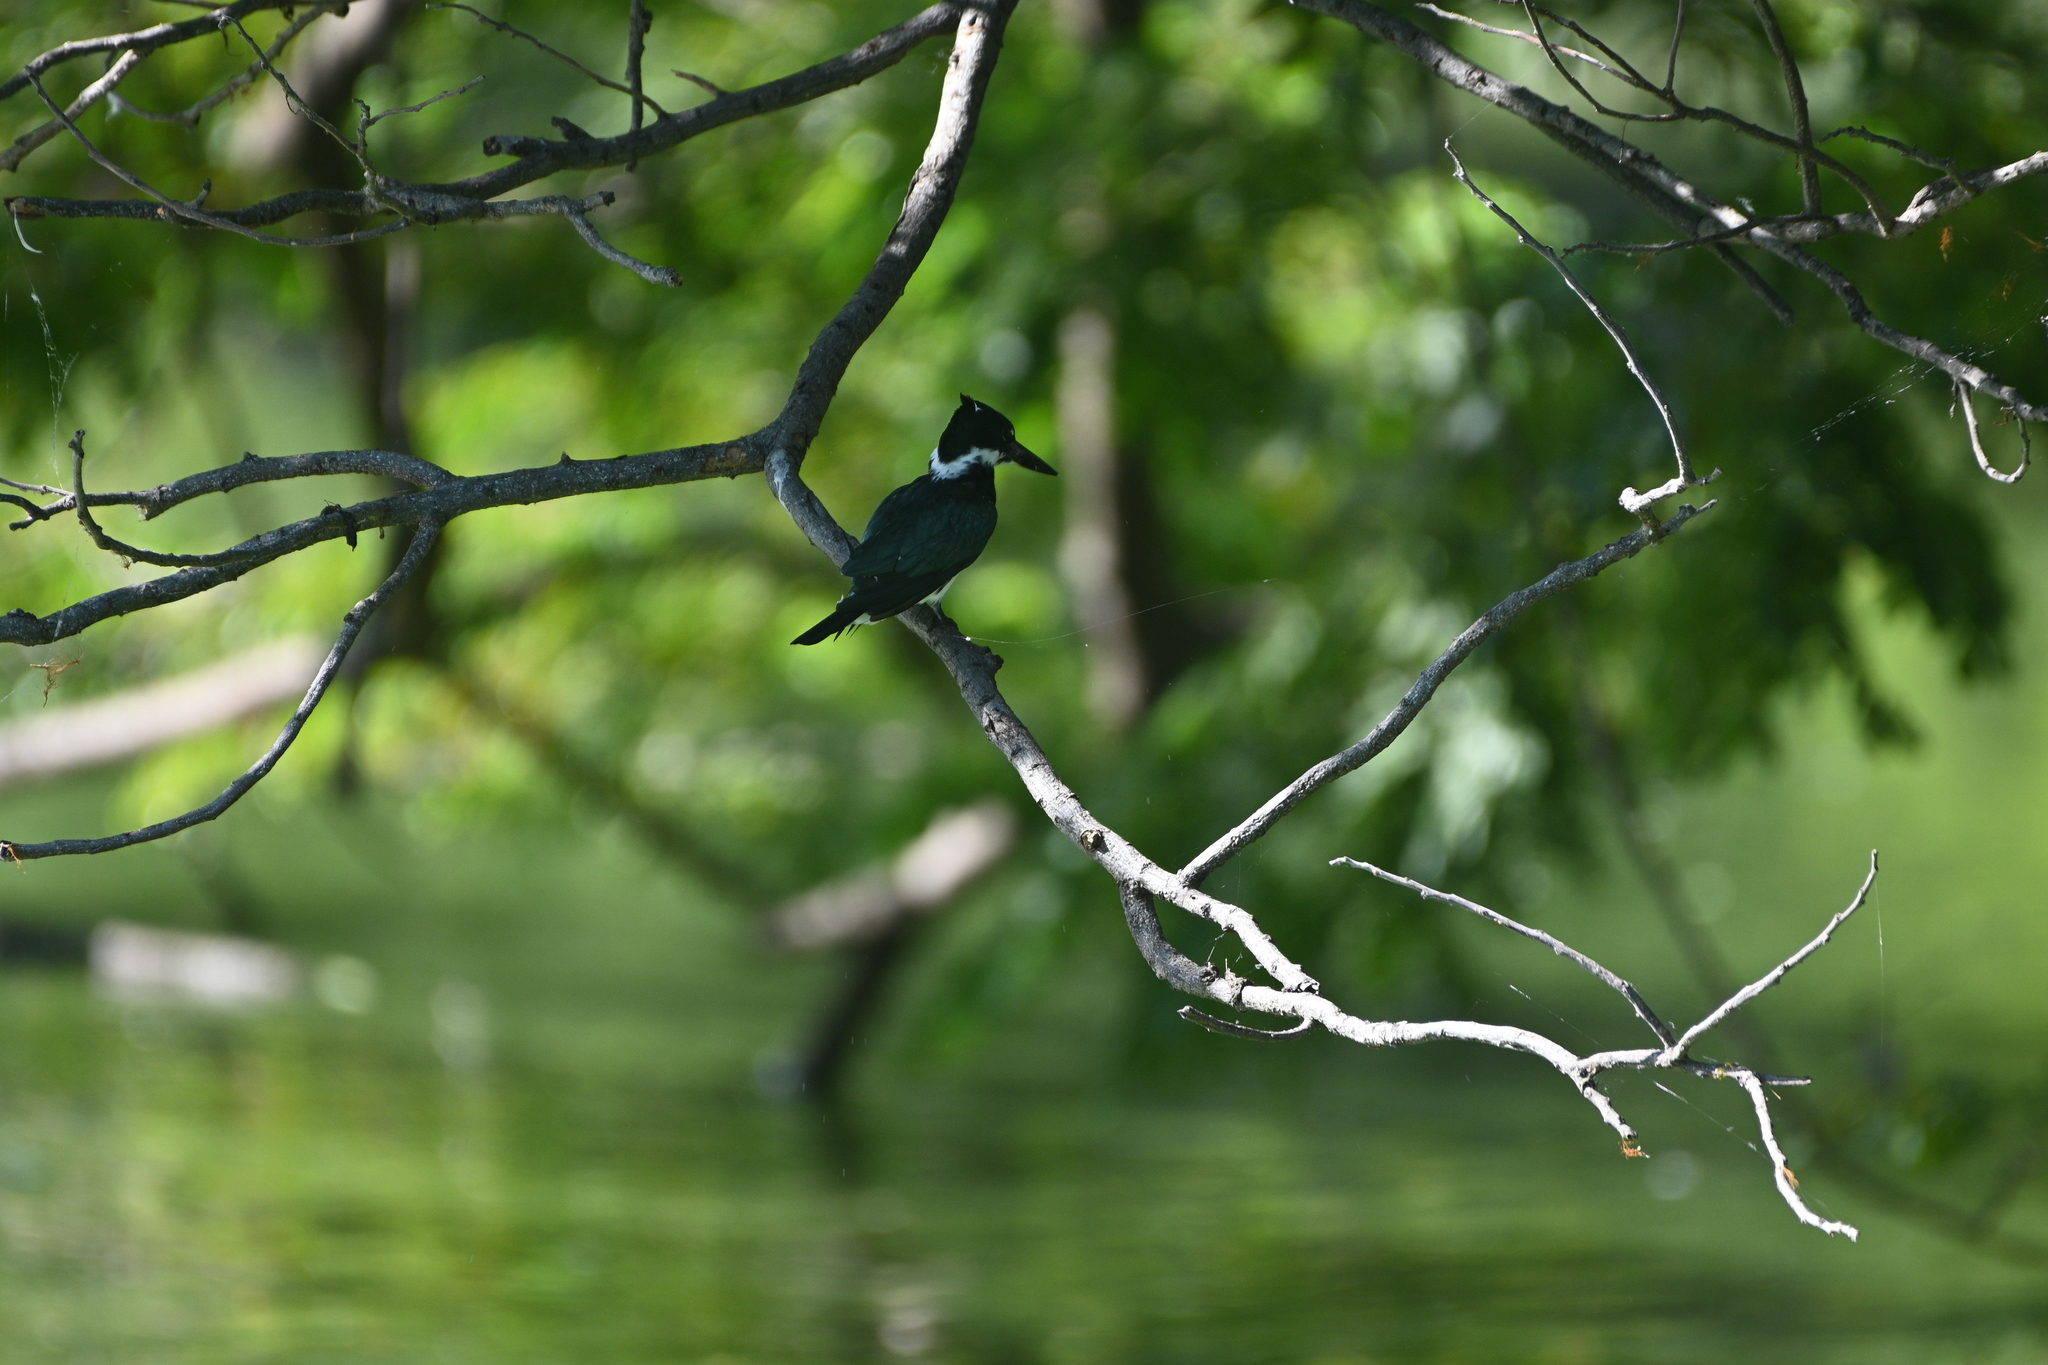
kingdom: Animalia
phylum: Chordata
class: Aves
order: Coraciiformes
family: Alcedinidae
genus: Chloroceryle
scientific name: Chloroceryle amazona
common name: Amazon kingfisher
